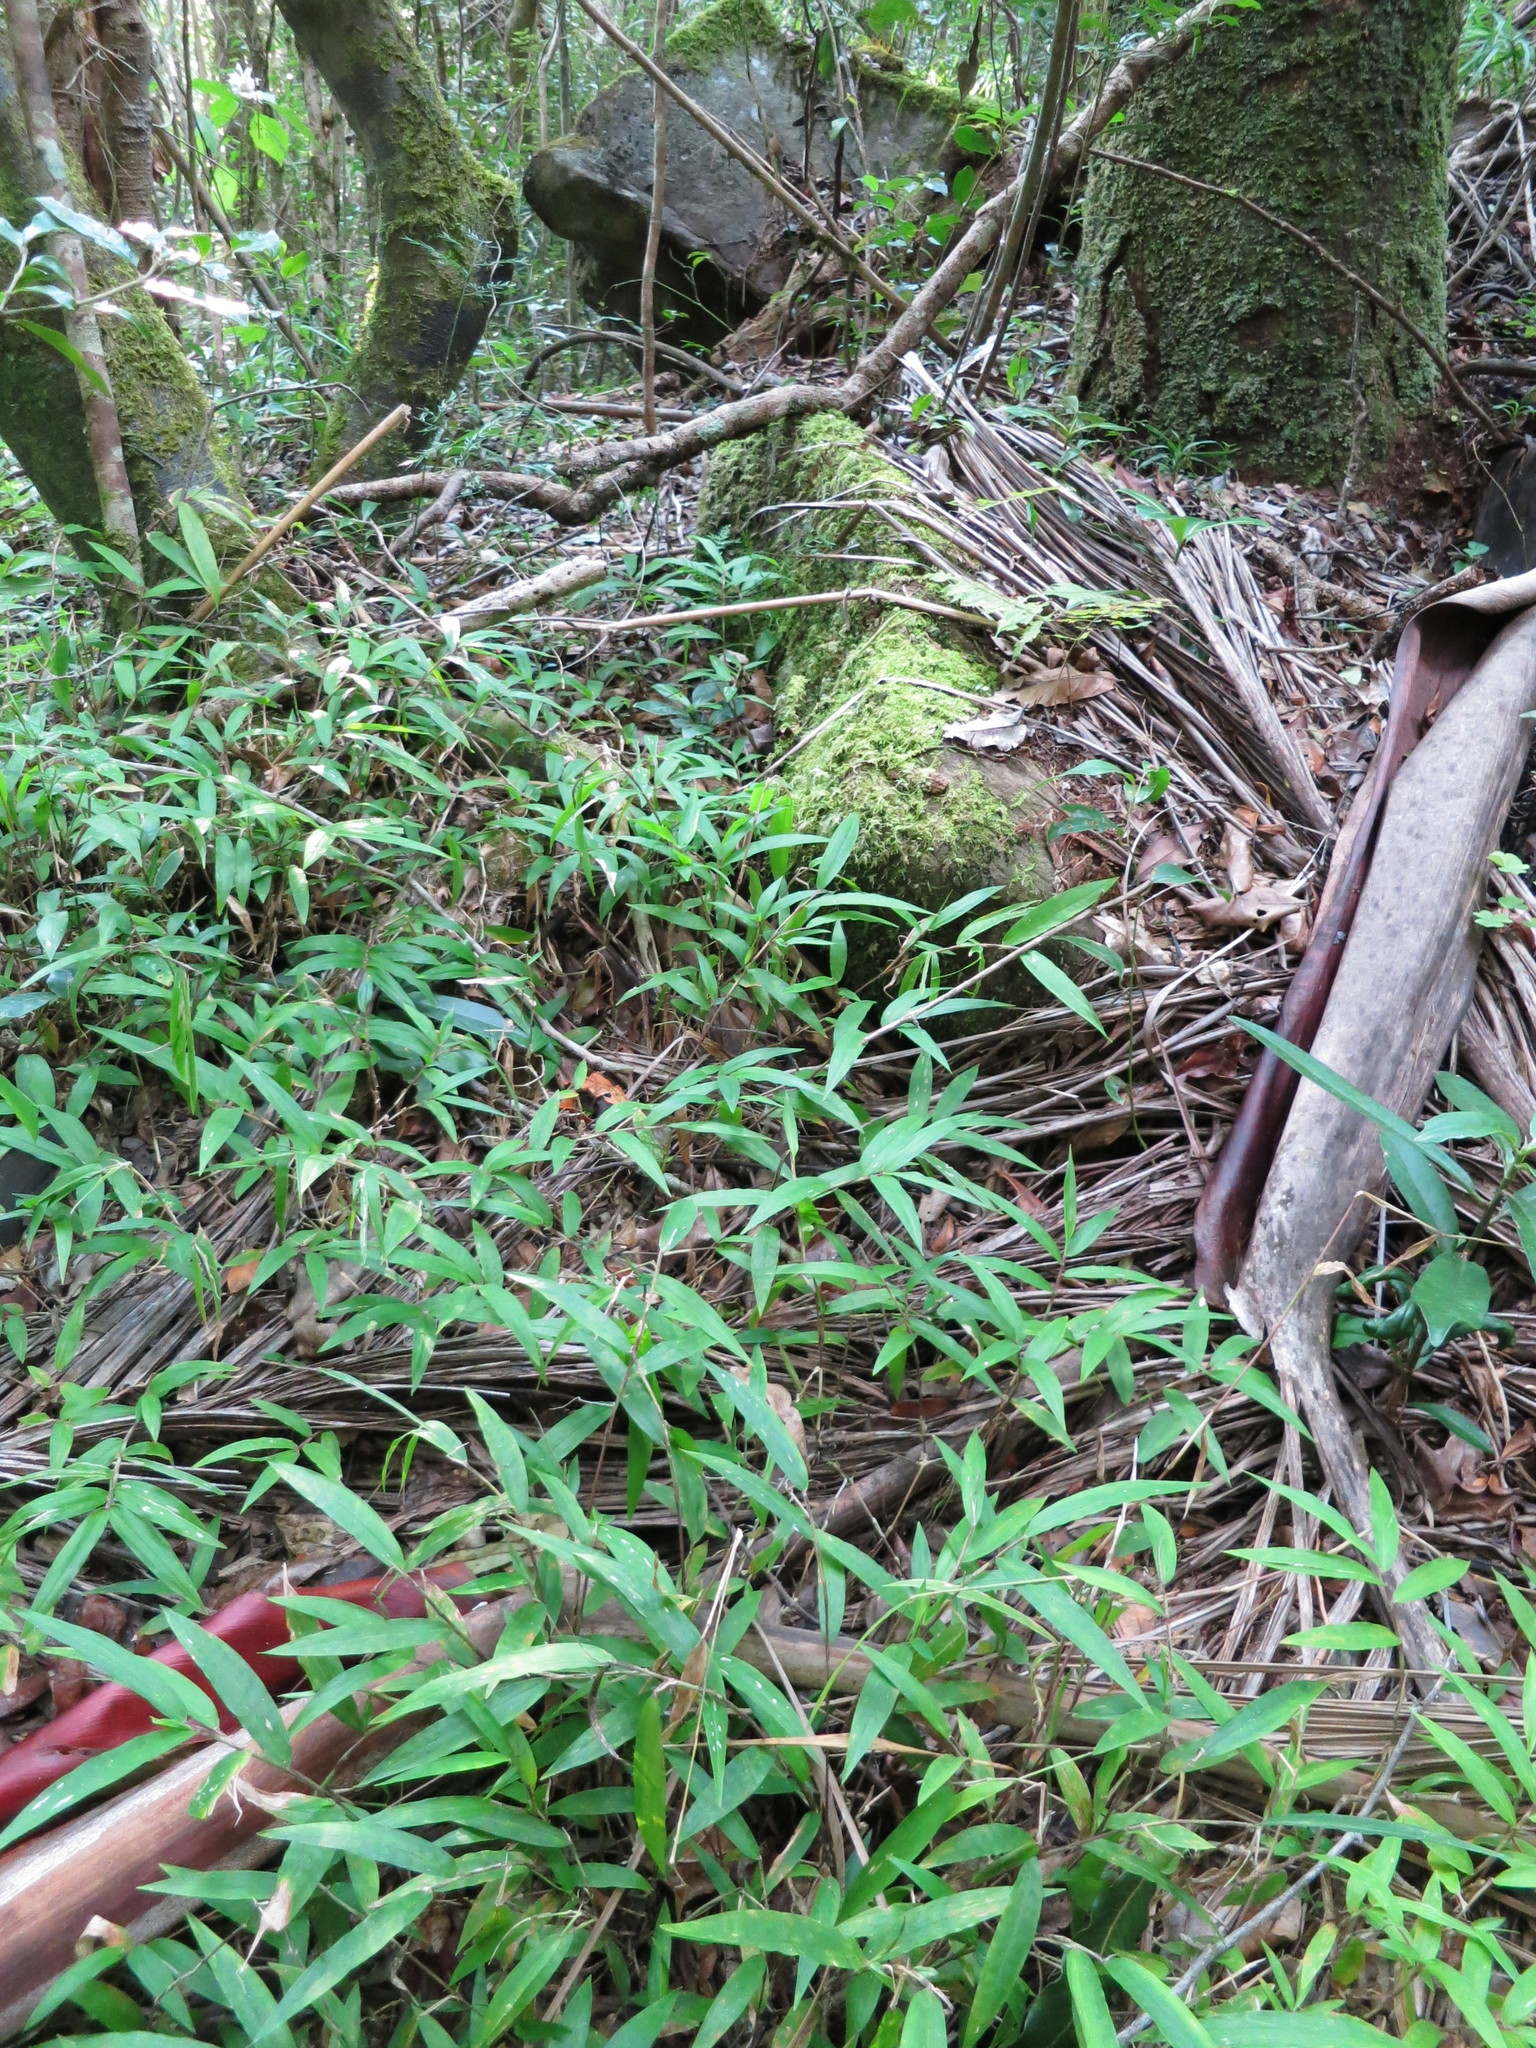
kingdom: Plantae
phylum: Tracheophyta
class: Liliopsida
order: Poales
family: Poaceae
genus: Oplismenus
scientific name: Oplismenus flavicomus
